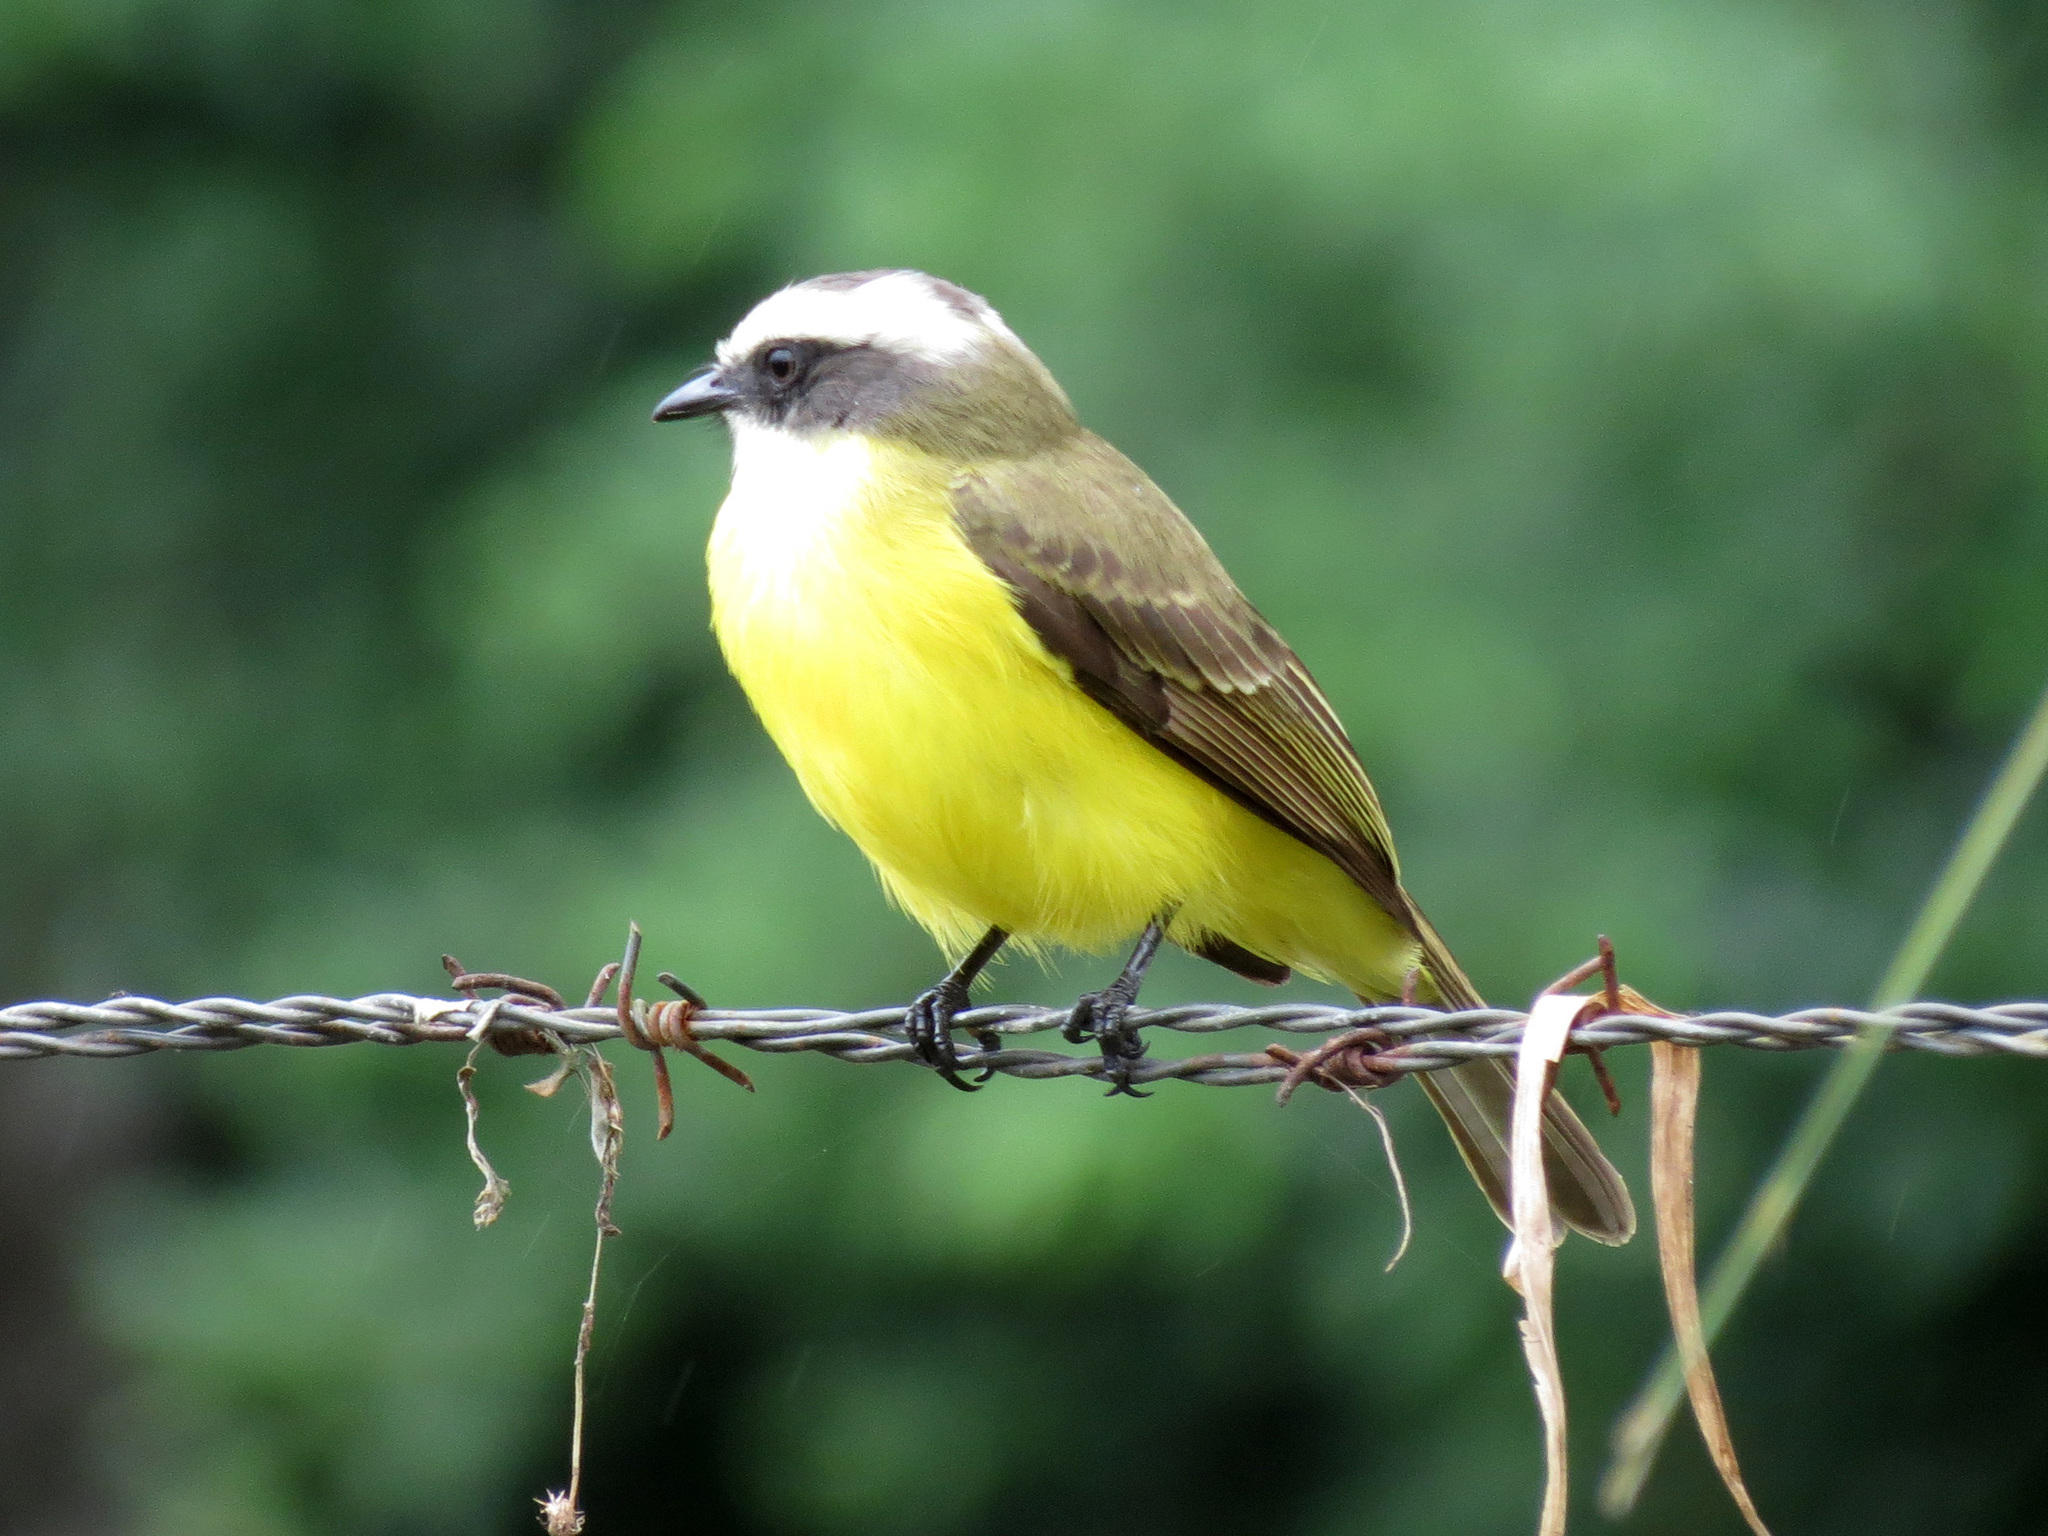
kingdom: Animalia
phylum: Chordata
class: Aves
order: Passeriformes
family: Tyrannidae
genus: Myiozetetes
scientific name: Myiozetetes similis
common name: Social flycatcher
